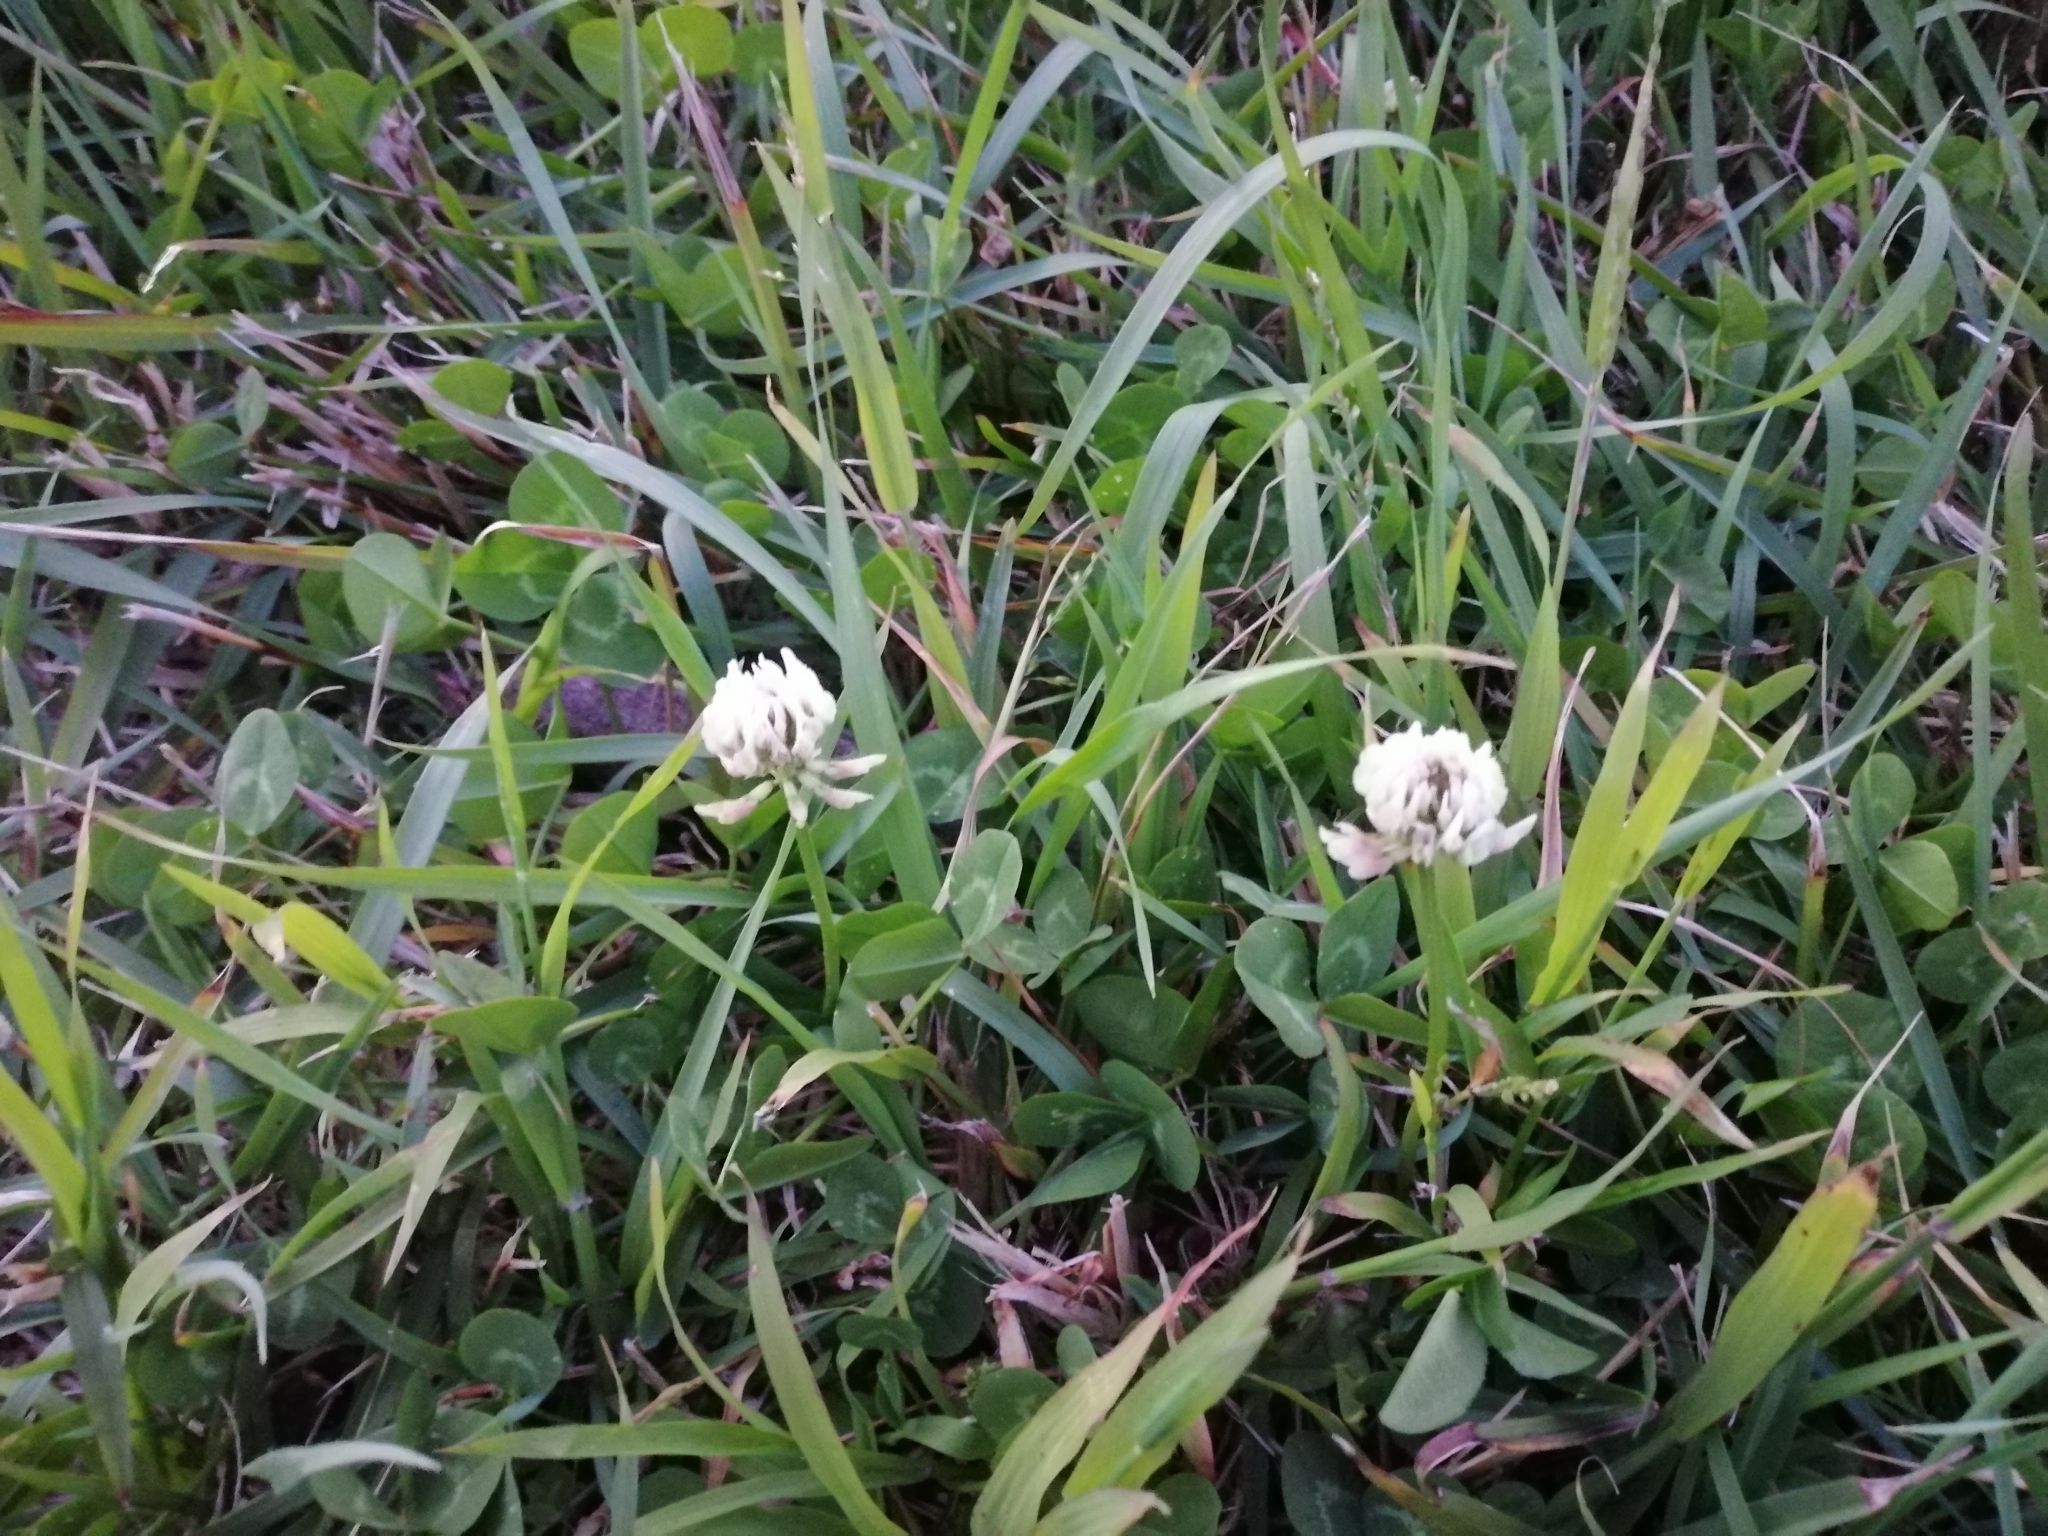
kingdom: Plantae
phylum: Tracheophyta
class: Magnoliopsida
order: Fabales
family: Fabaceae
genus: Trifolium
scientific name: Trifolium repens
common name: White clover
